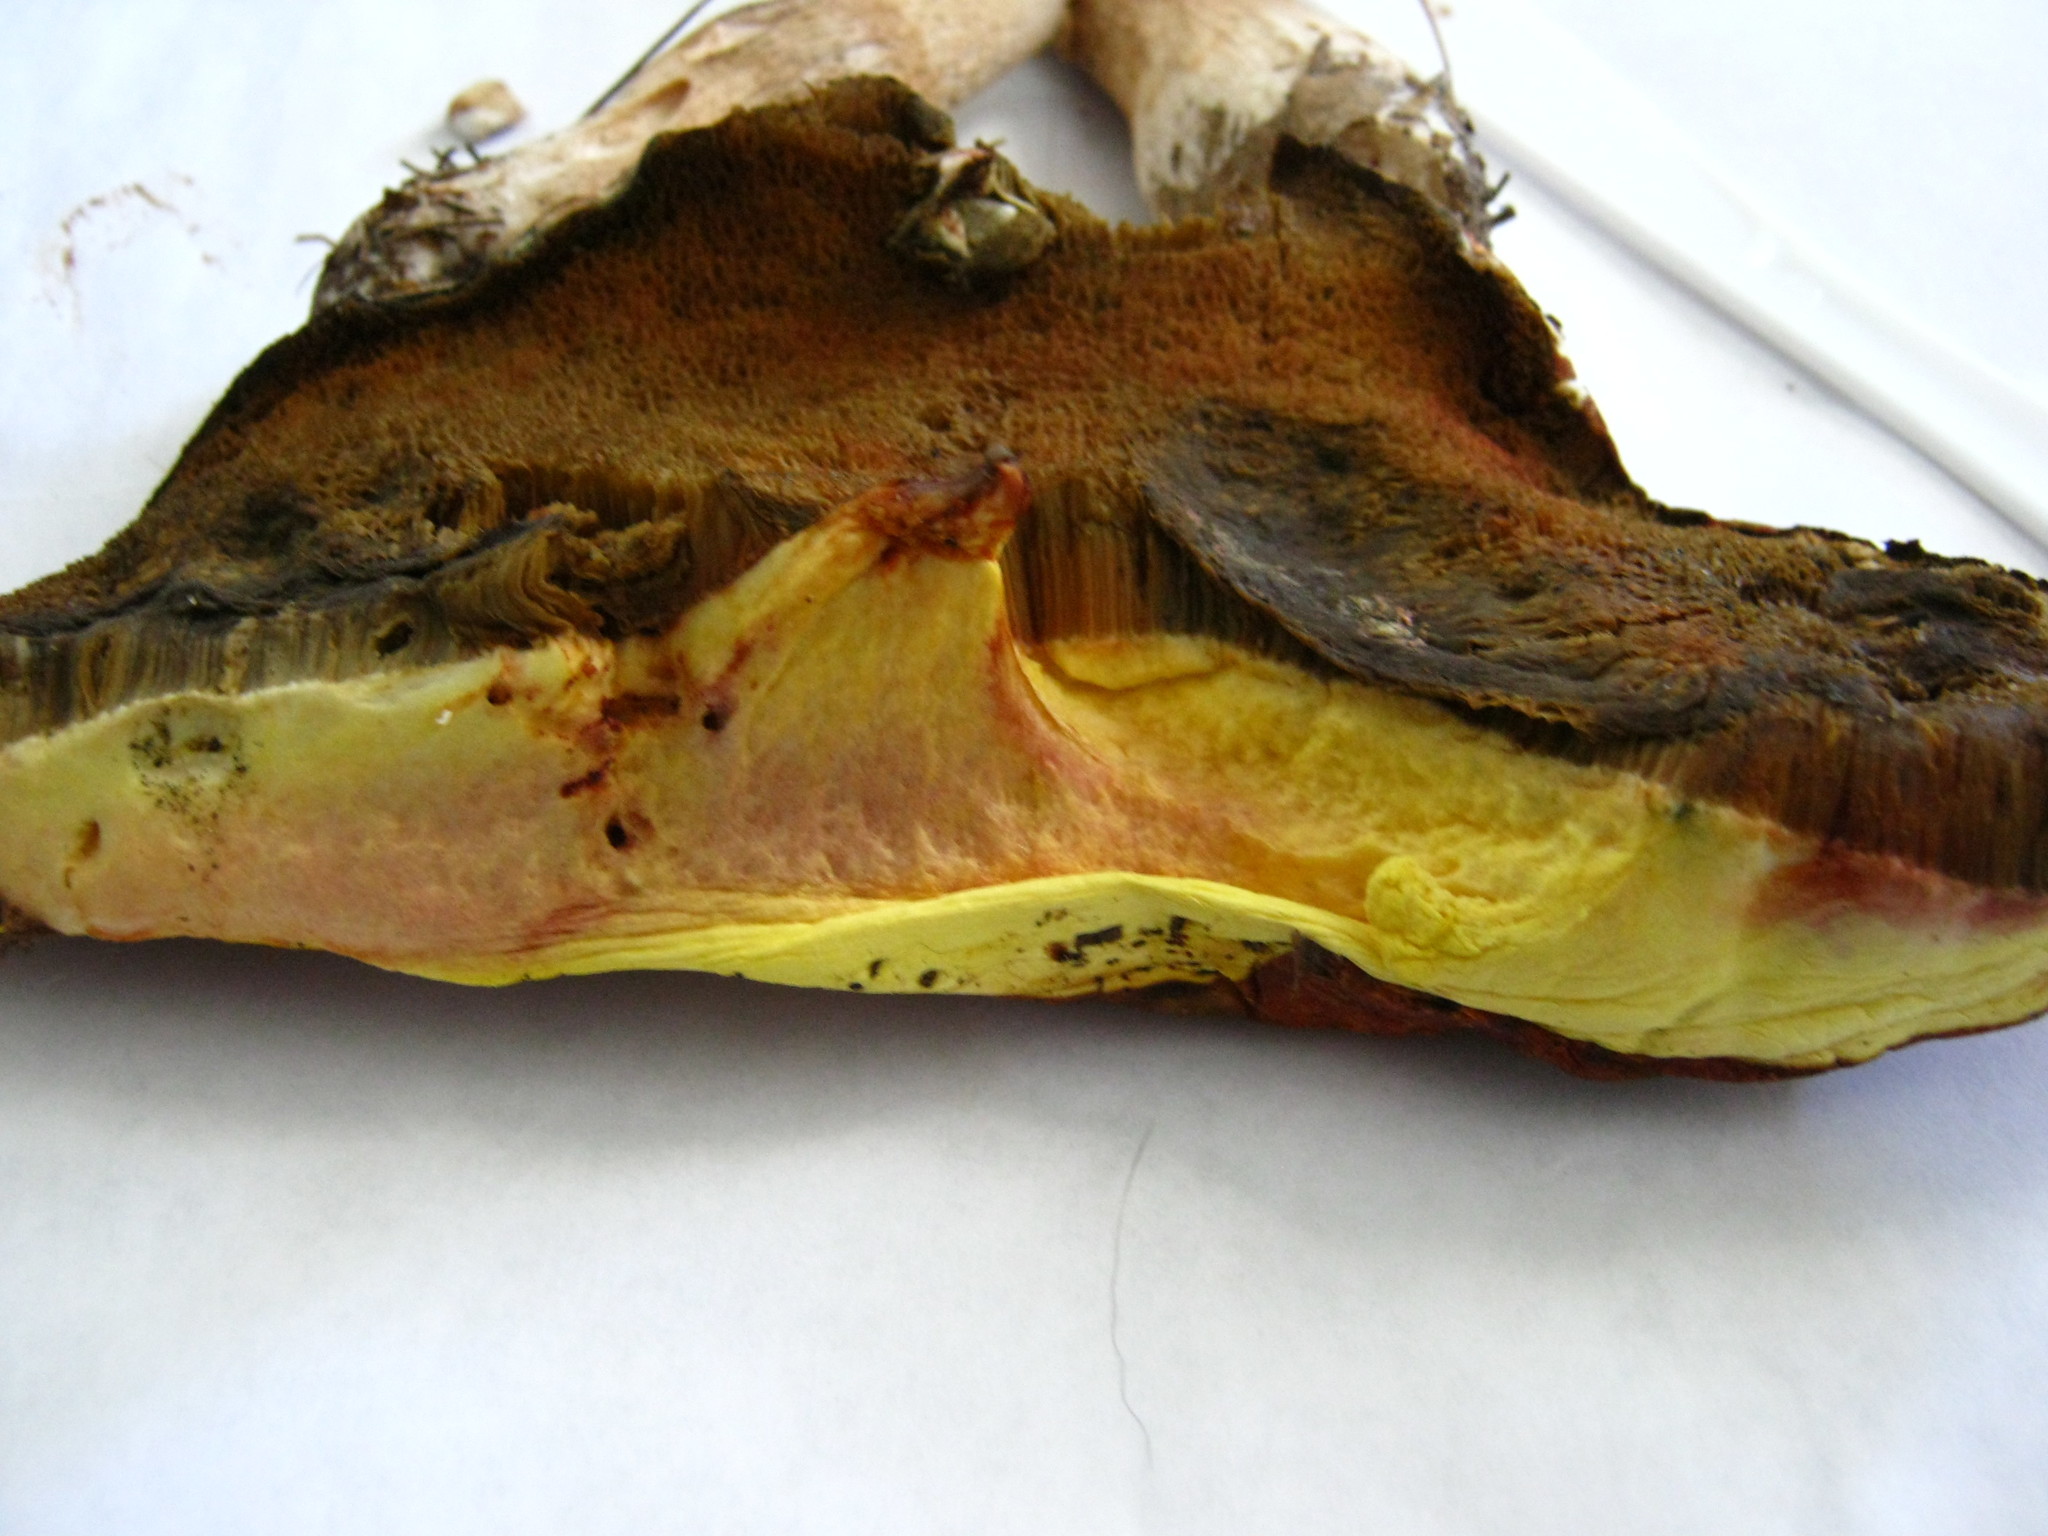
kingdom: Fungi
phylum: Basidiomycota
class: Agaricomycetes
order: Boletales
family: Boletaceae
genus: Baorangia
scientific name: Baorangia bicolor
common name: Two-colored bolete
